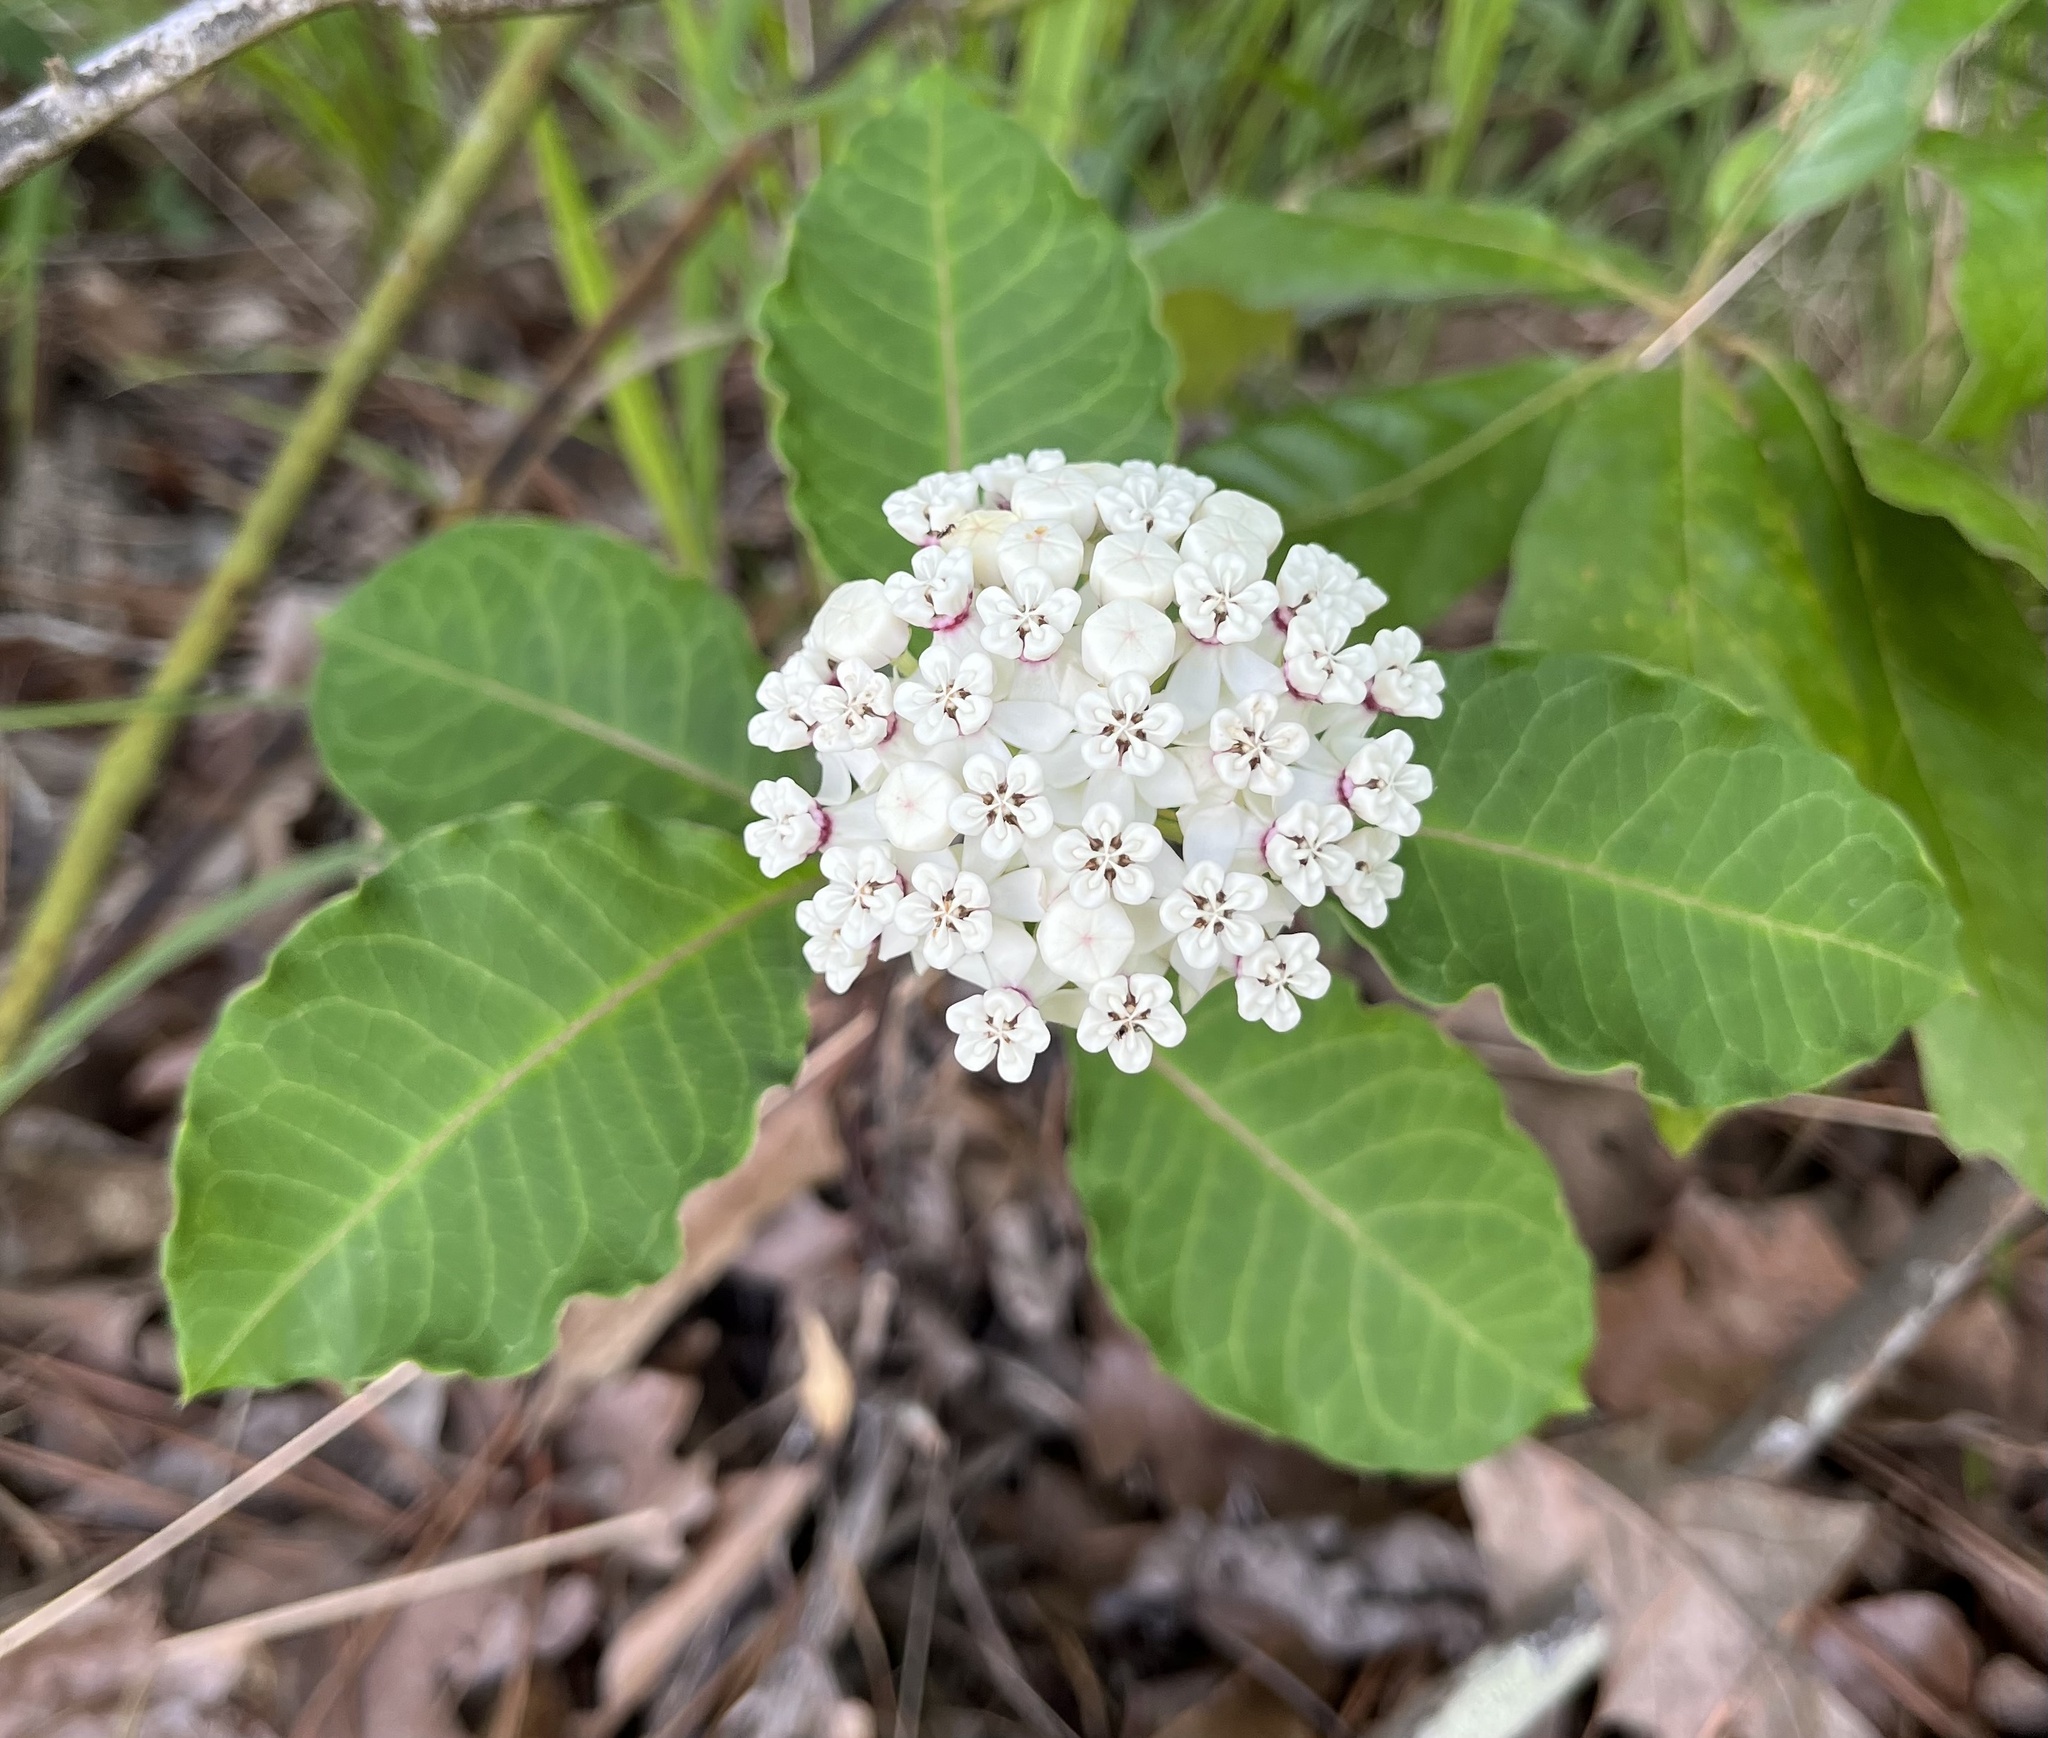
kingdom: Plantae
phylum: Tracheophyta
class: Magnoliopsida
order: Gentianales
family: Apocynaceae
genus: Asclepias
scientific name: Asclepias variegata
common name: Variegated milkweed
